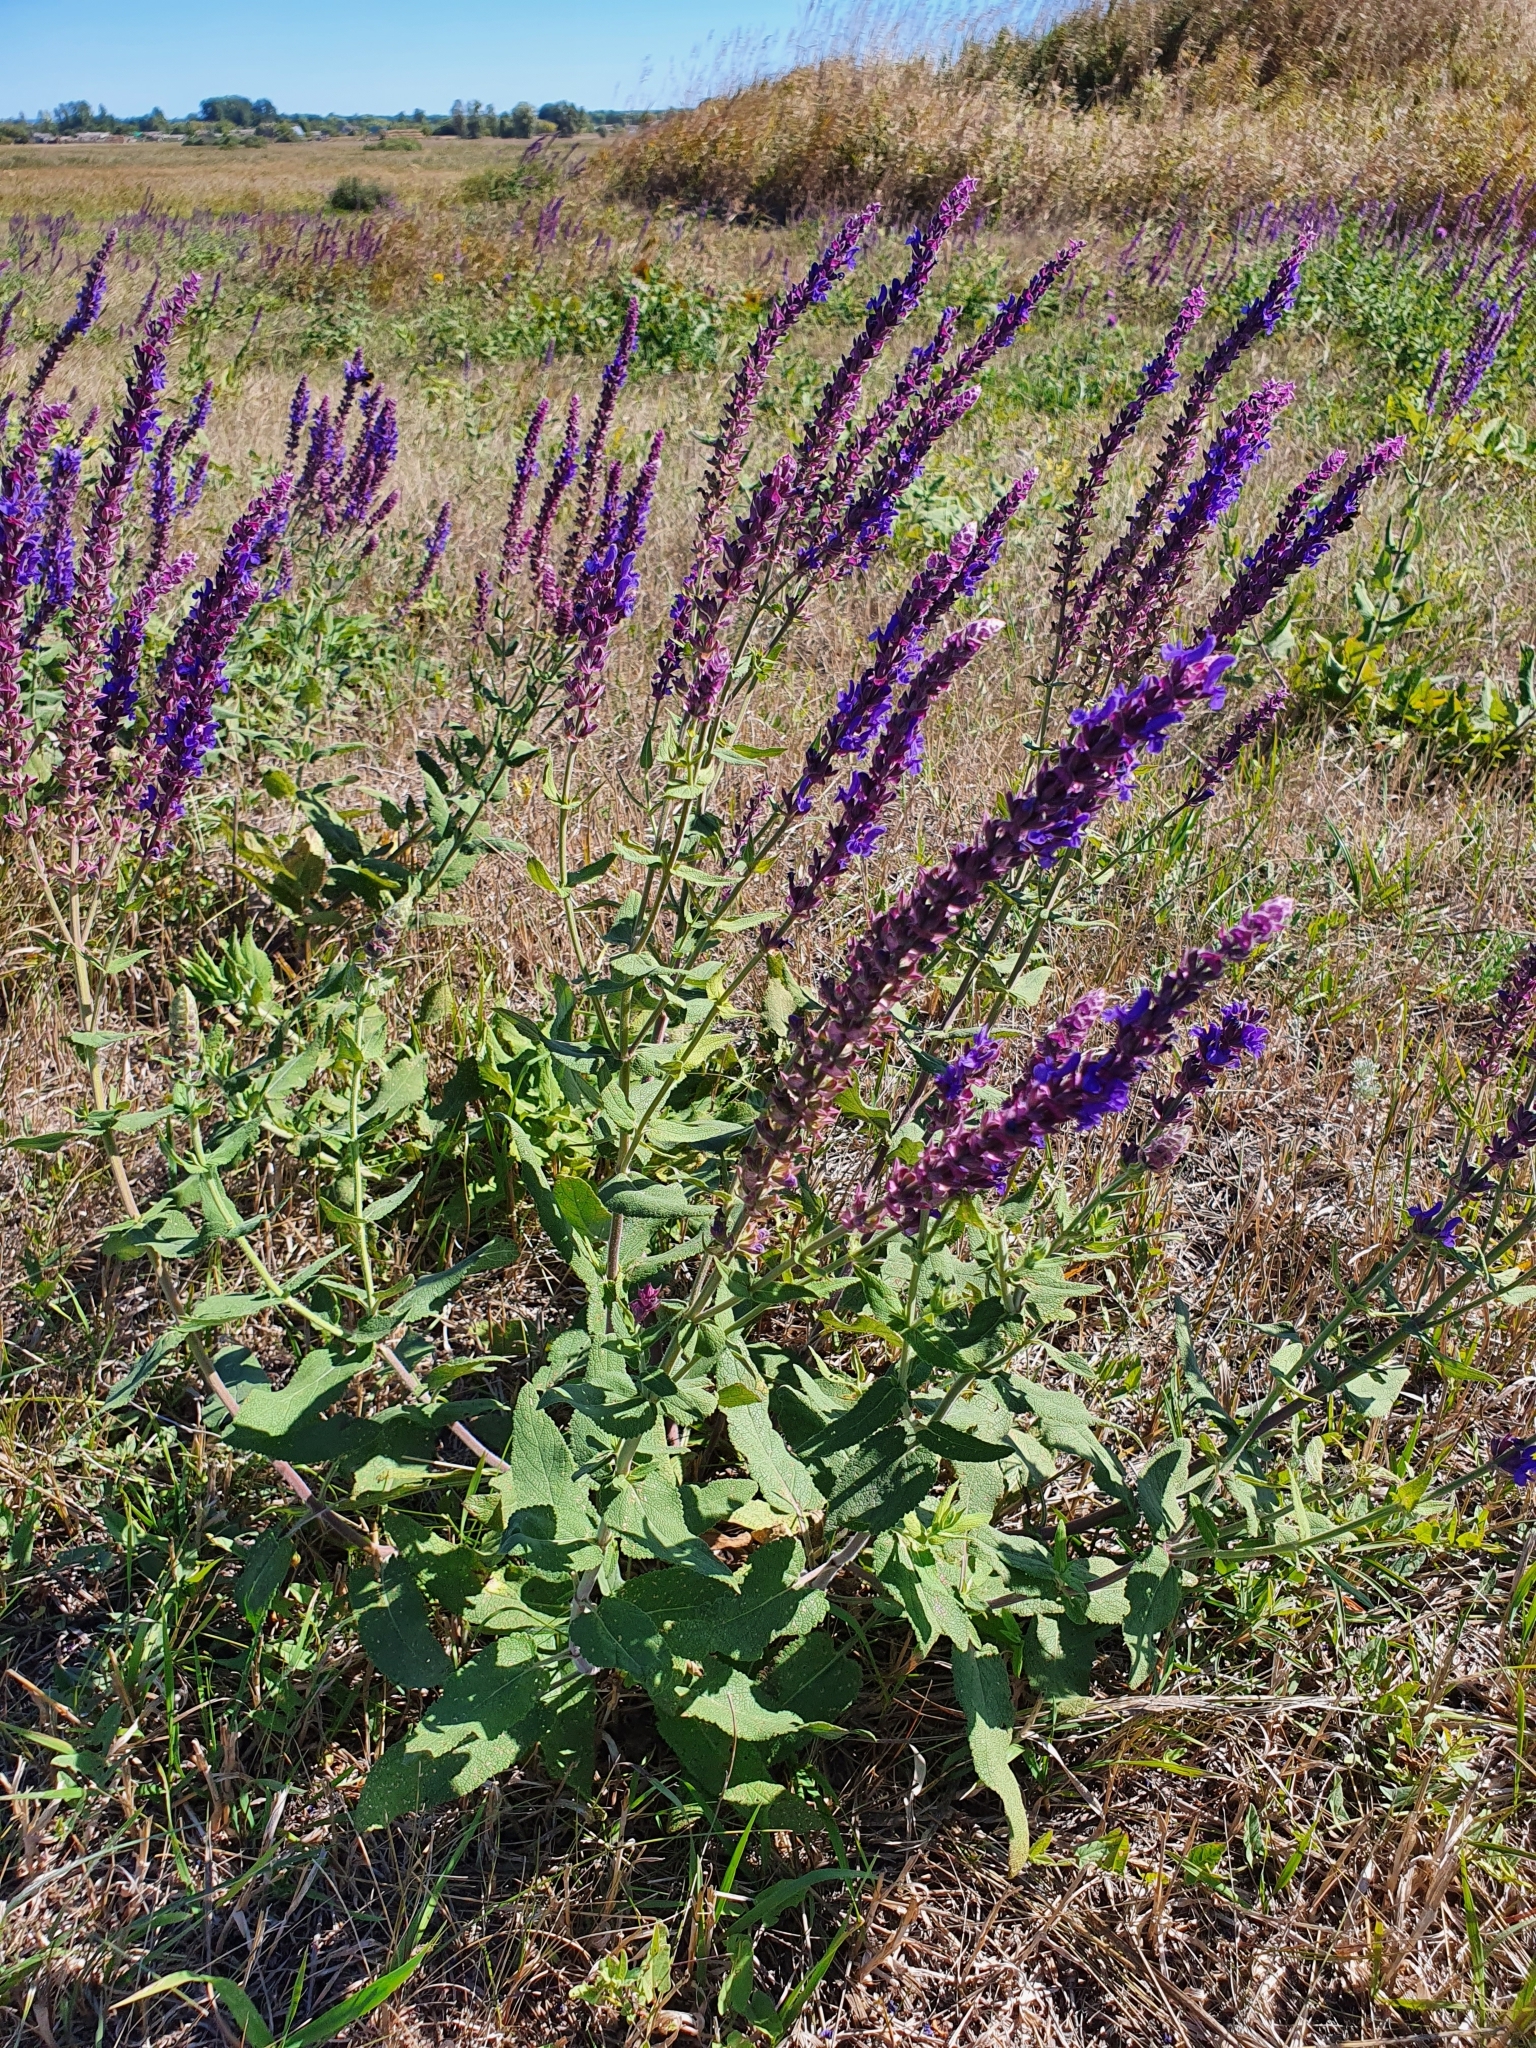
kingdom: Plantae
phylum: Tracheophyta
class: Magnoliopsida
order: Lamiales
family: Lamiaceae
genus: Salvia
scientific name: Salvia nemorosa
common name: Balkan clary
